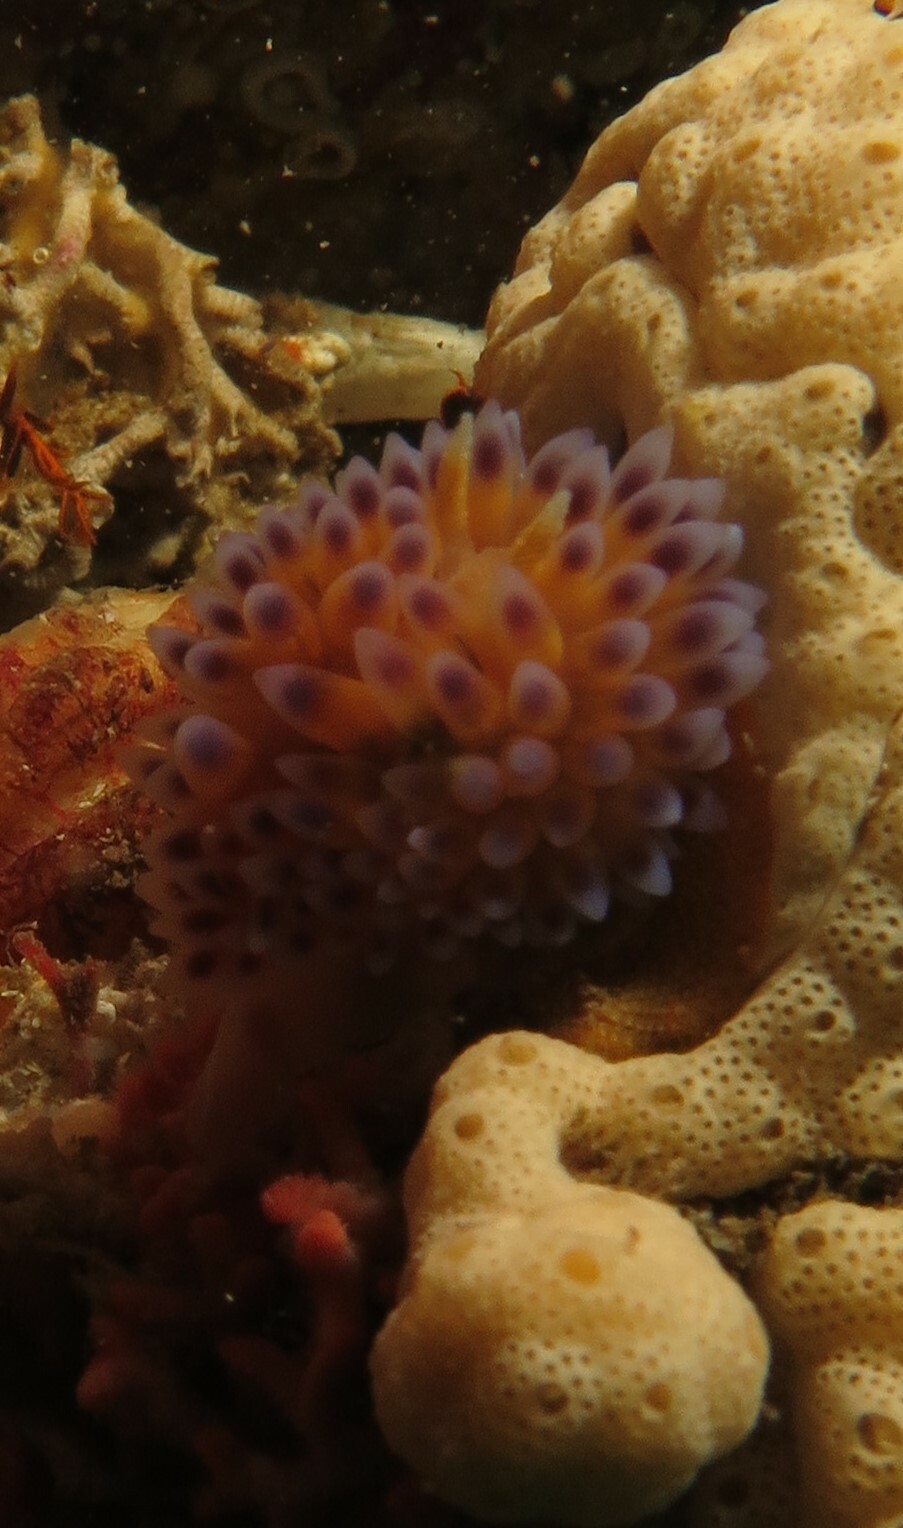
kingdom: Animalia
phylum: Mollusca
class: Gastropoda
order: Nudibranchia
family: Janolidae
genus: Bonisa
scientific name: Bonisa nakaza
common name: Gas flame nudibranch
